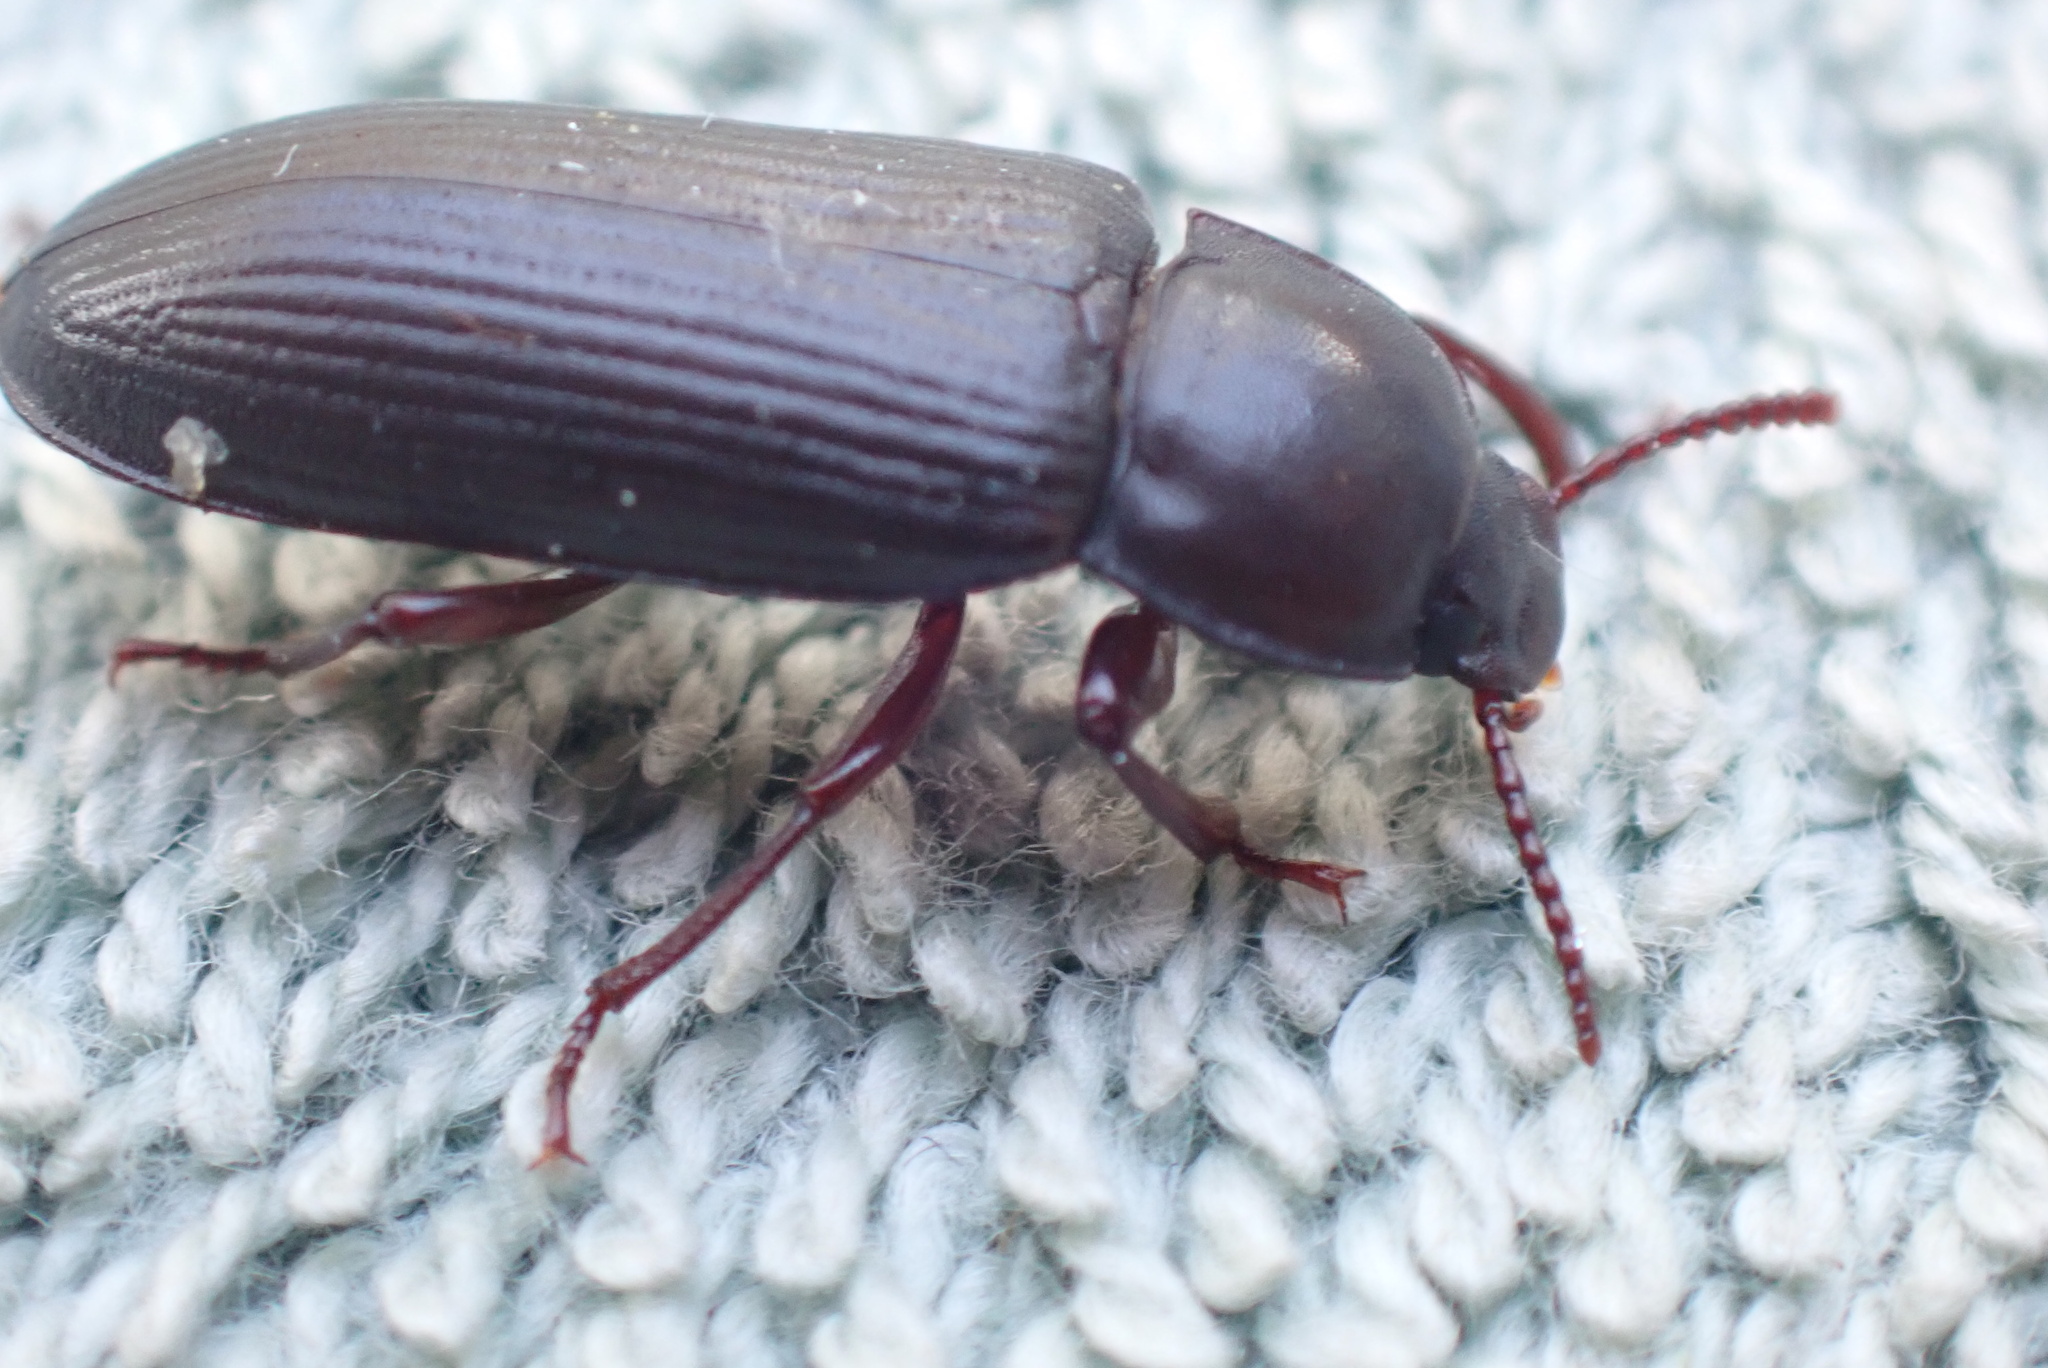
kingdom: Animalia
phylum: Arthropoda
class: Insecta
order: Coleoptera
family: Tenebrionidae
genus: Tenebrio
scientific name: Tenebrio molitor
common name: Hardback beetle
